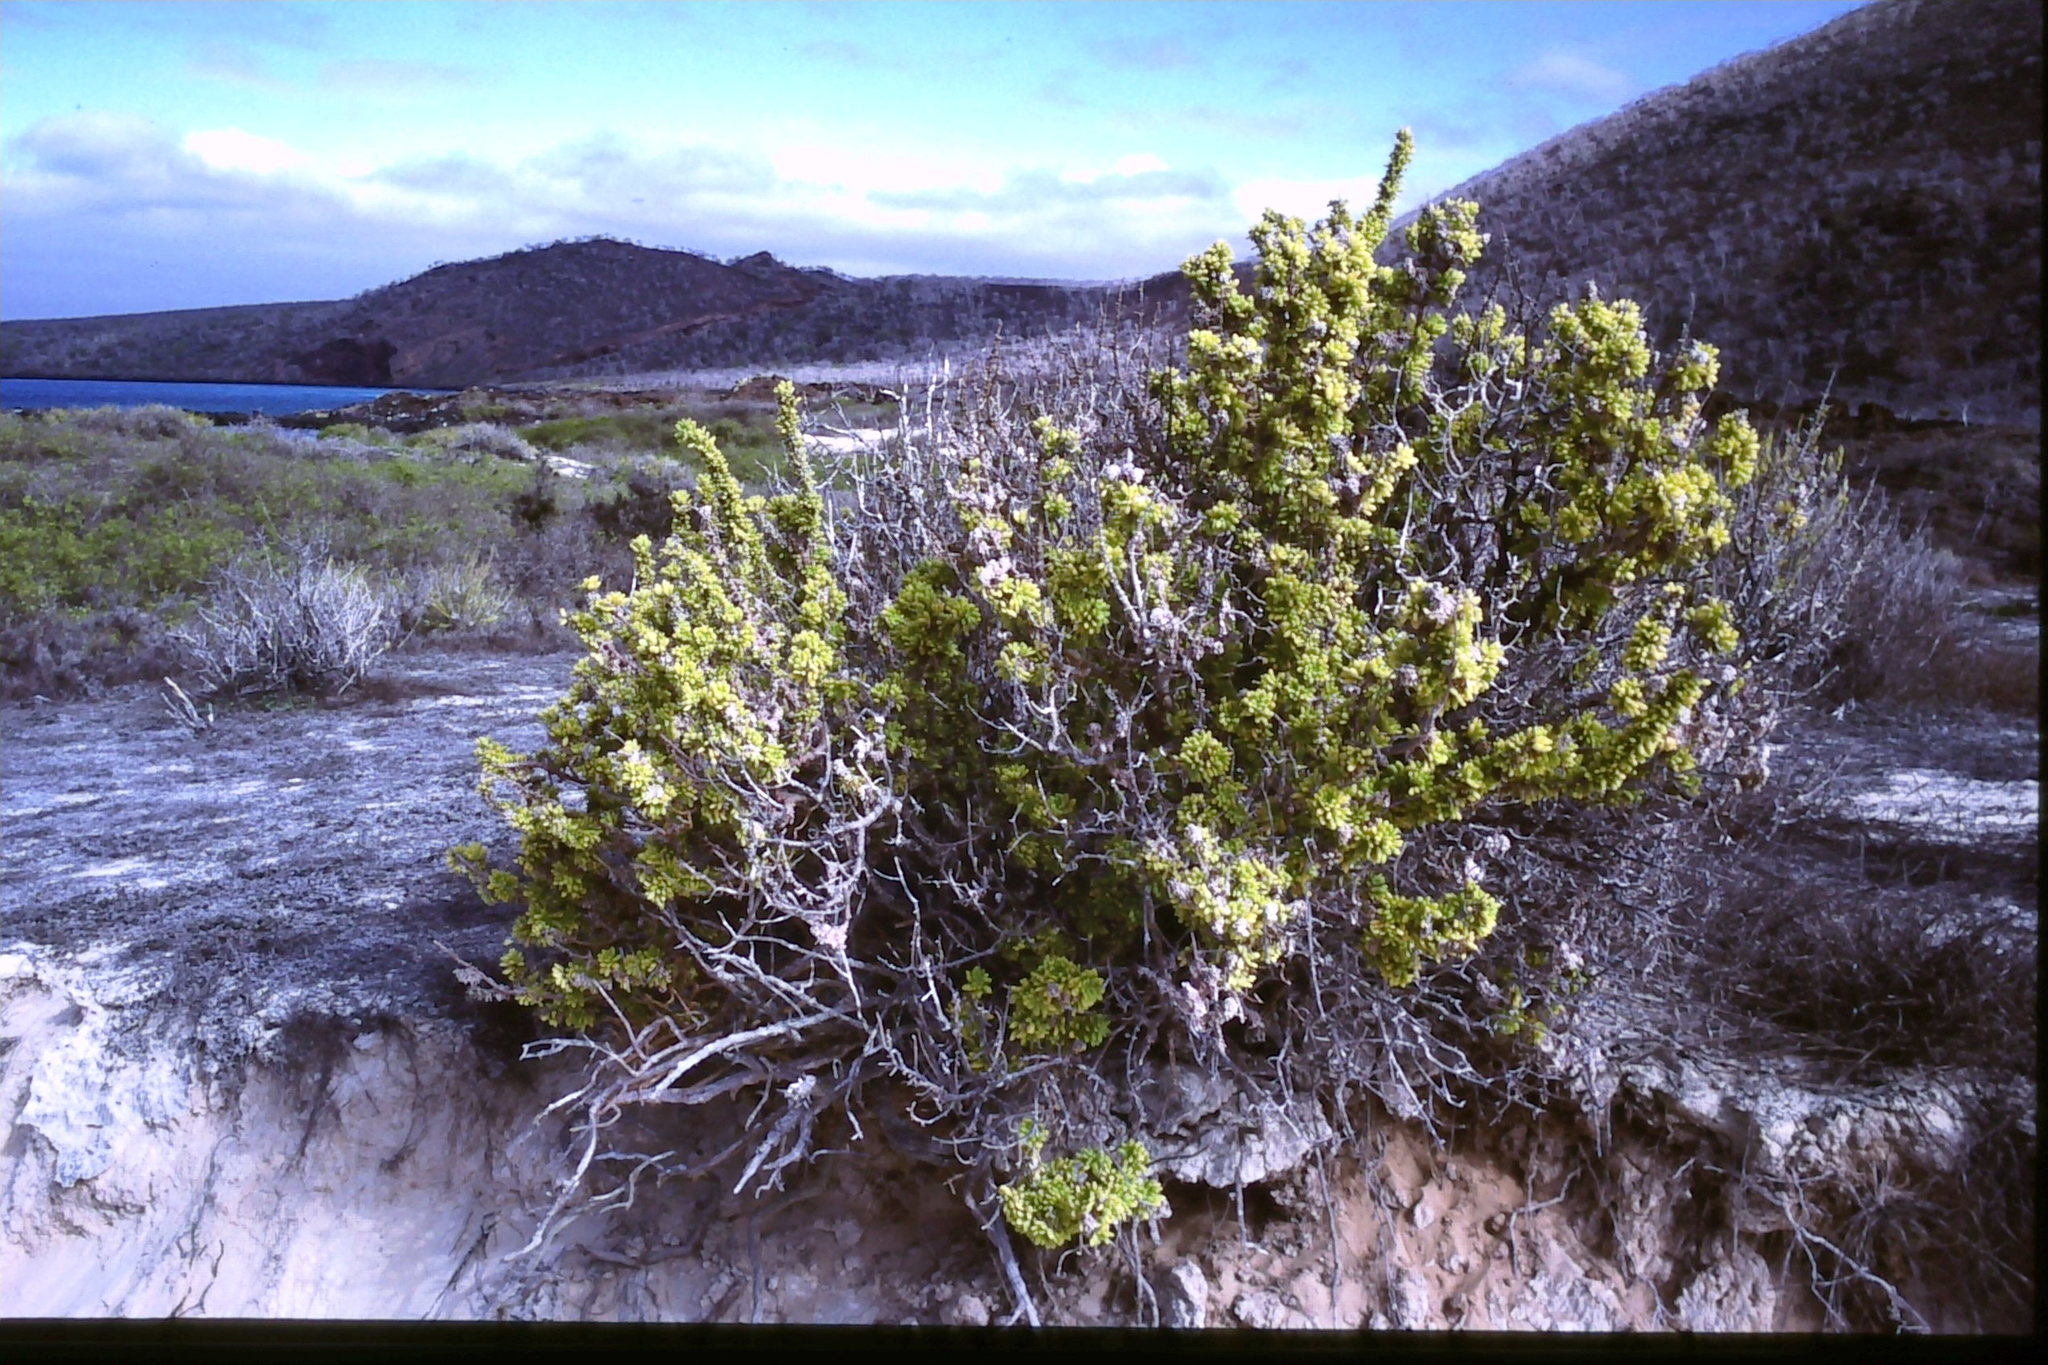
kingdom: Plantae
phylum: Tracheophyta
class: Magnoliopsida
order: Solanales
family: Solanaceae
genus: Nolana
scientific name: Nolana galapagensis
